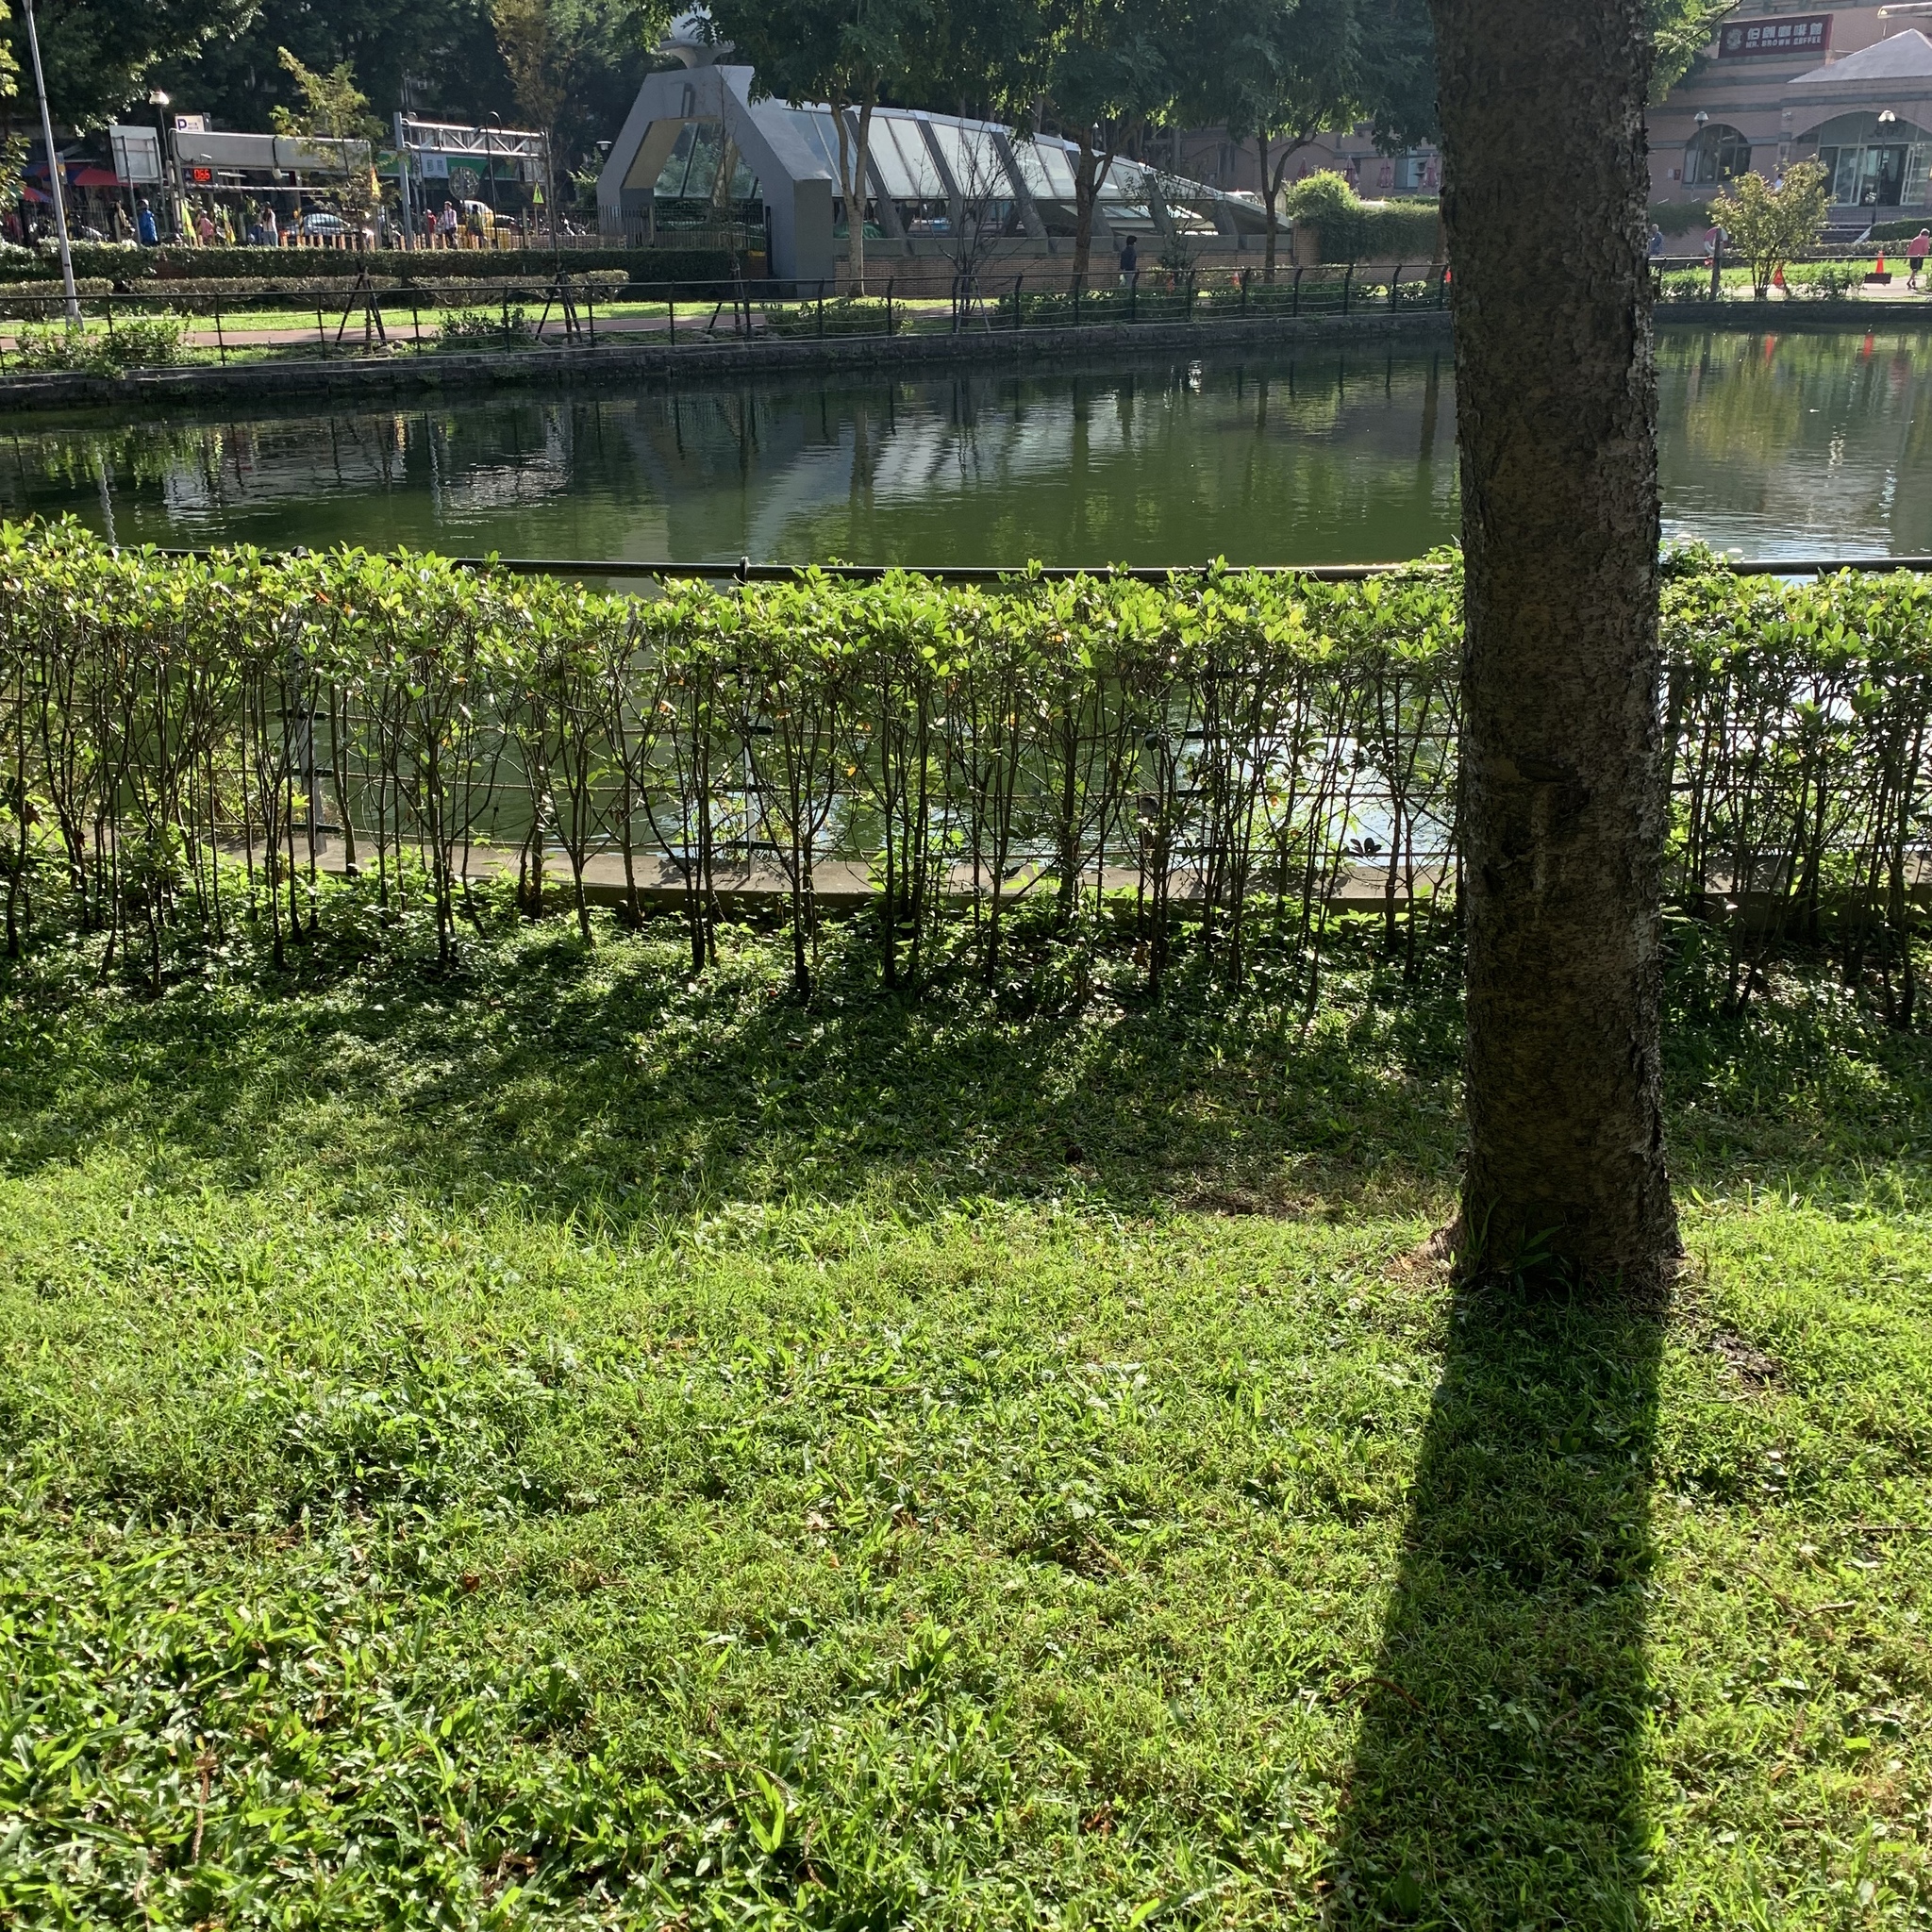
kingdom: Animalia
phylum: Chordata
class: Aves
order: Pelecaniformes
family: Ardeidae
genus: Nycticorax
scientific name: Nycticorax nycticorax
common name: Black-crowned night heron
